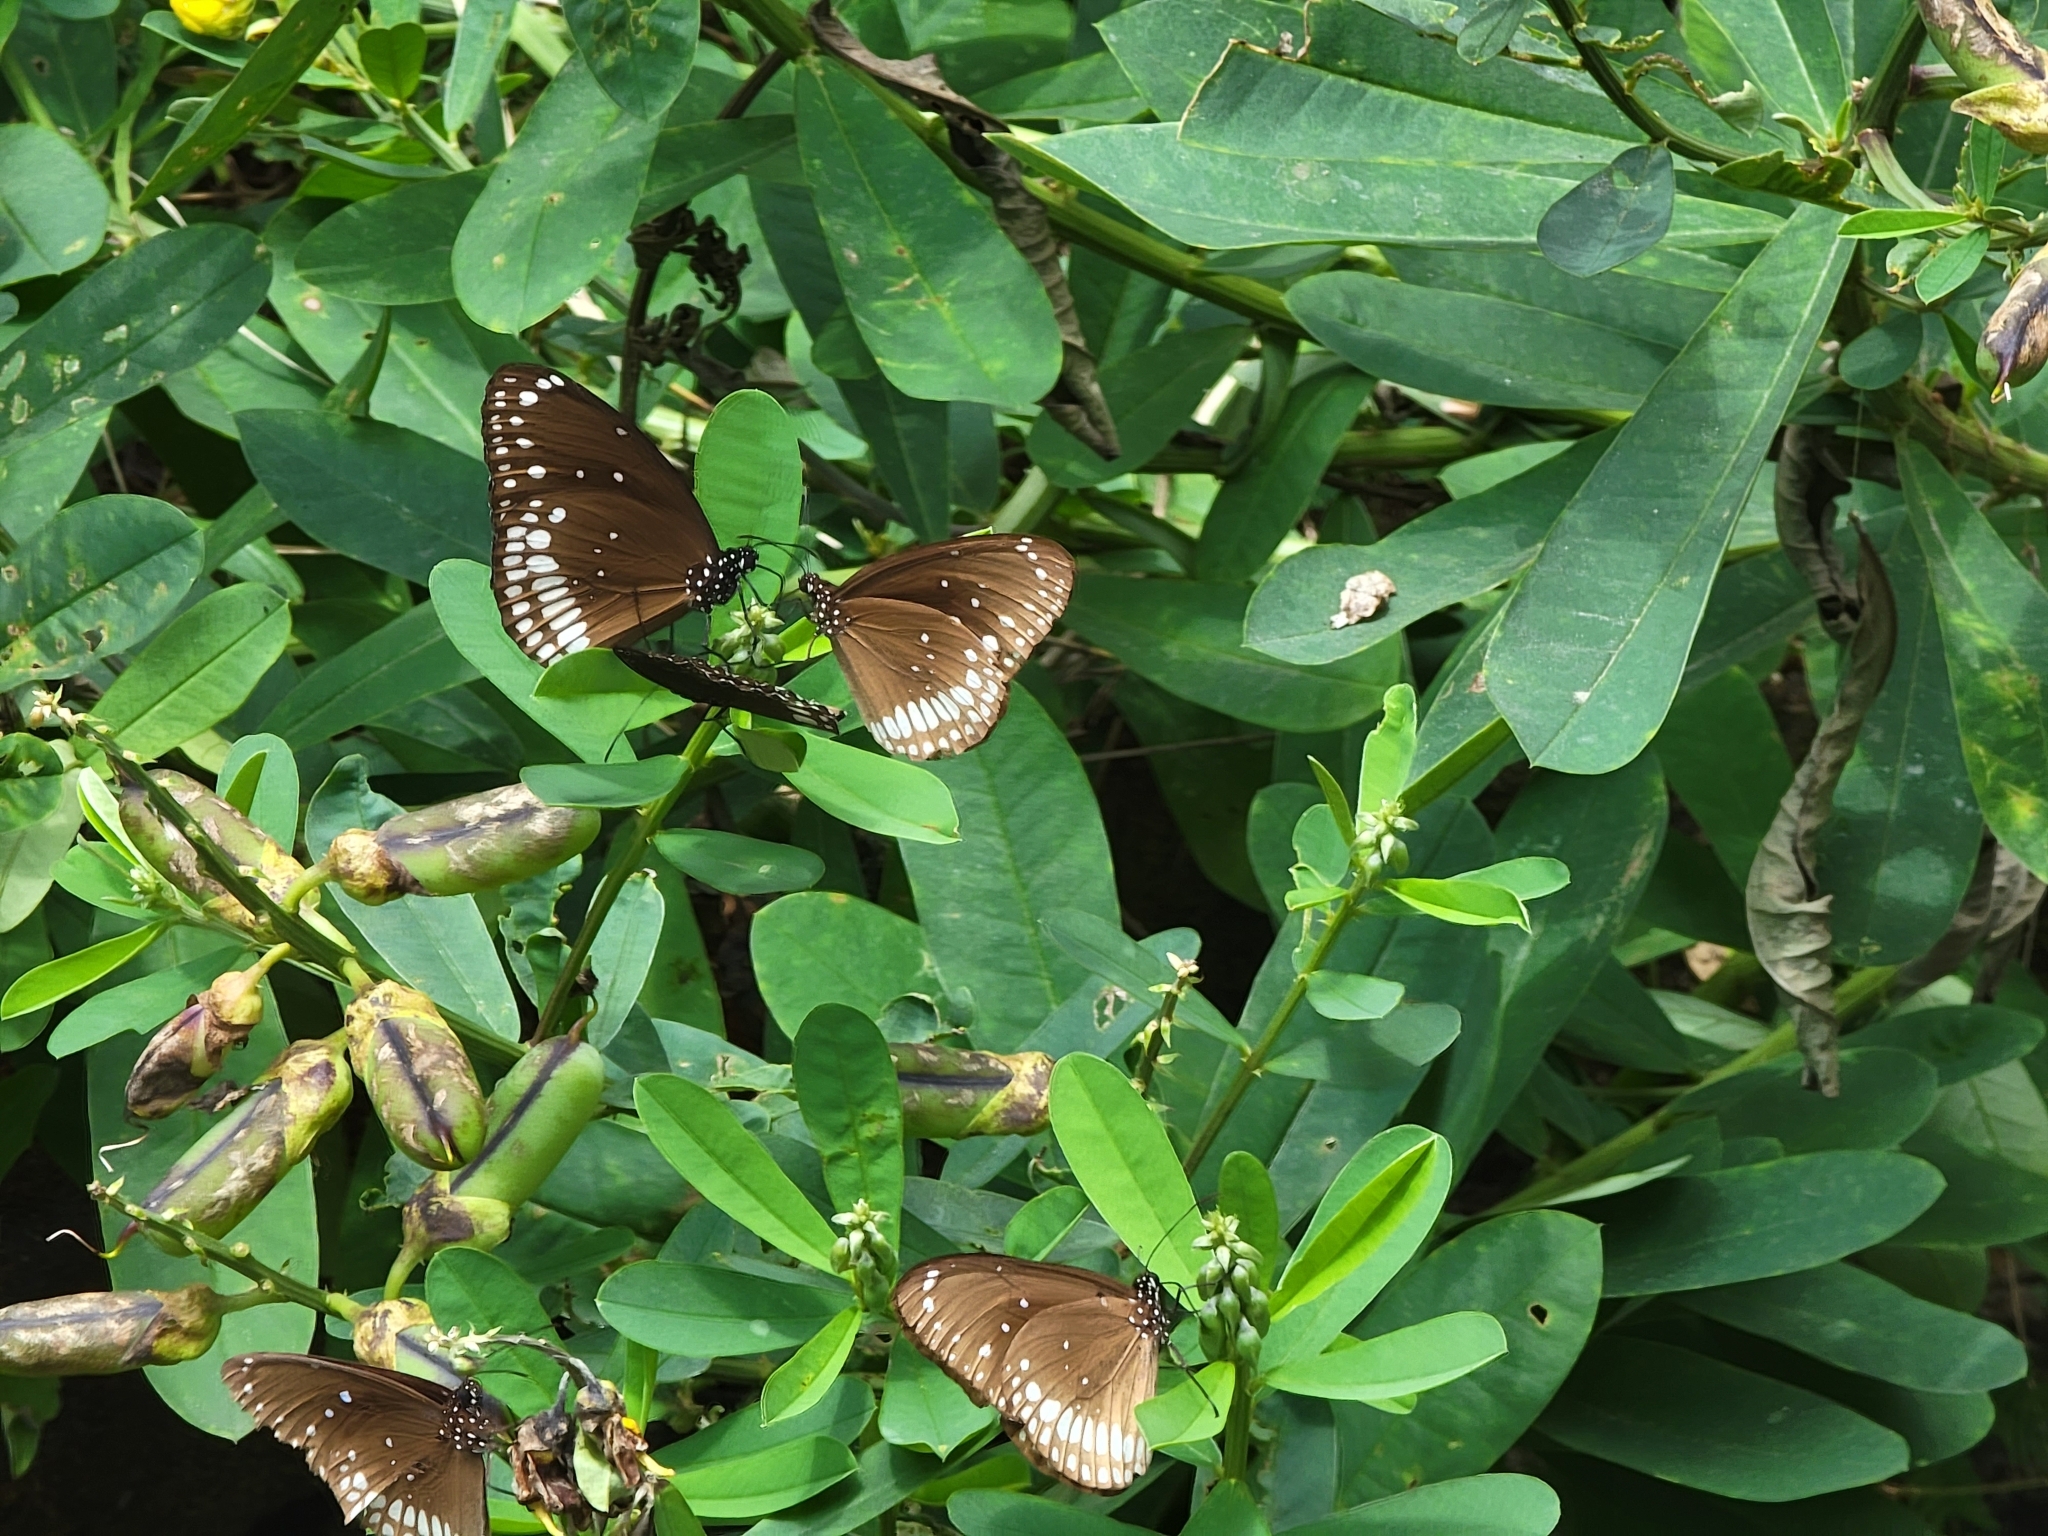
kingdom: Animalia
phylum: Arthropoda
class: Insecta
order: Lepidoptera
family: Nymphalidae
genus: Euploea
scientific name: Euploea core
